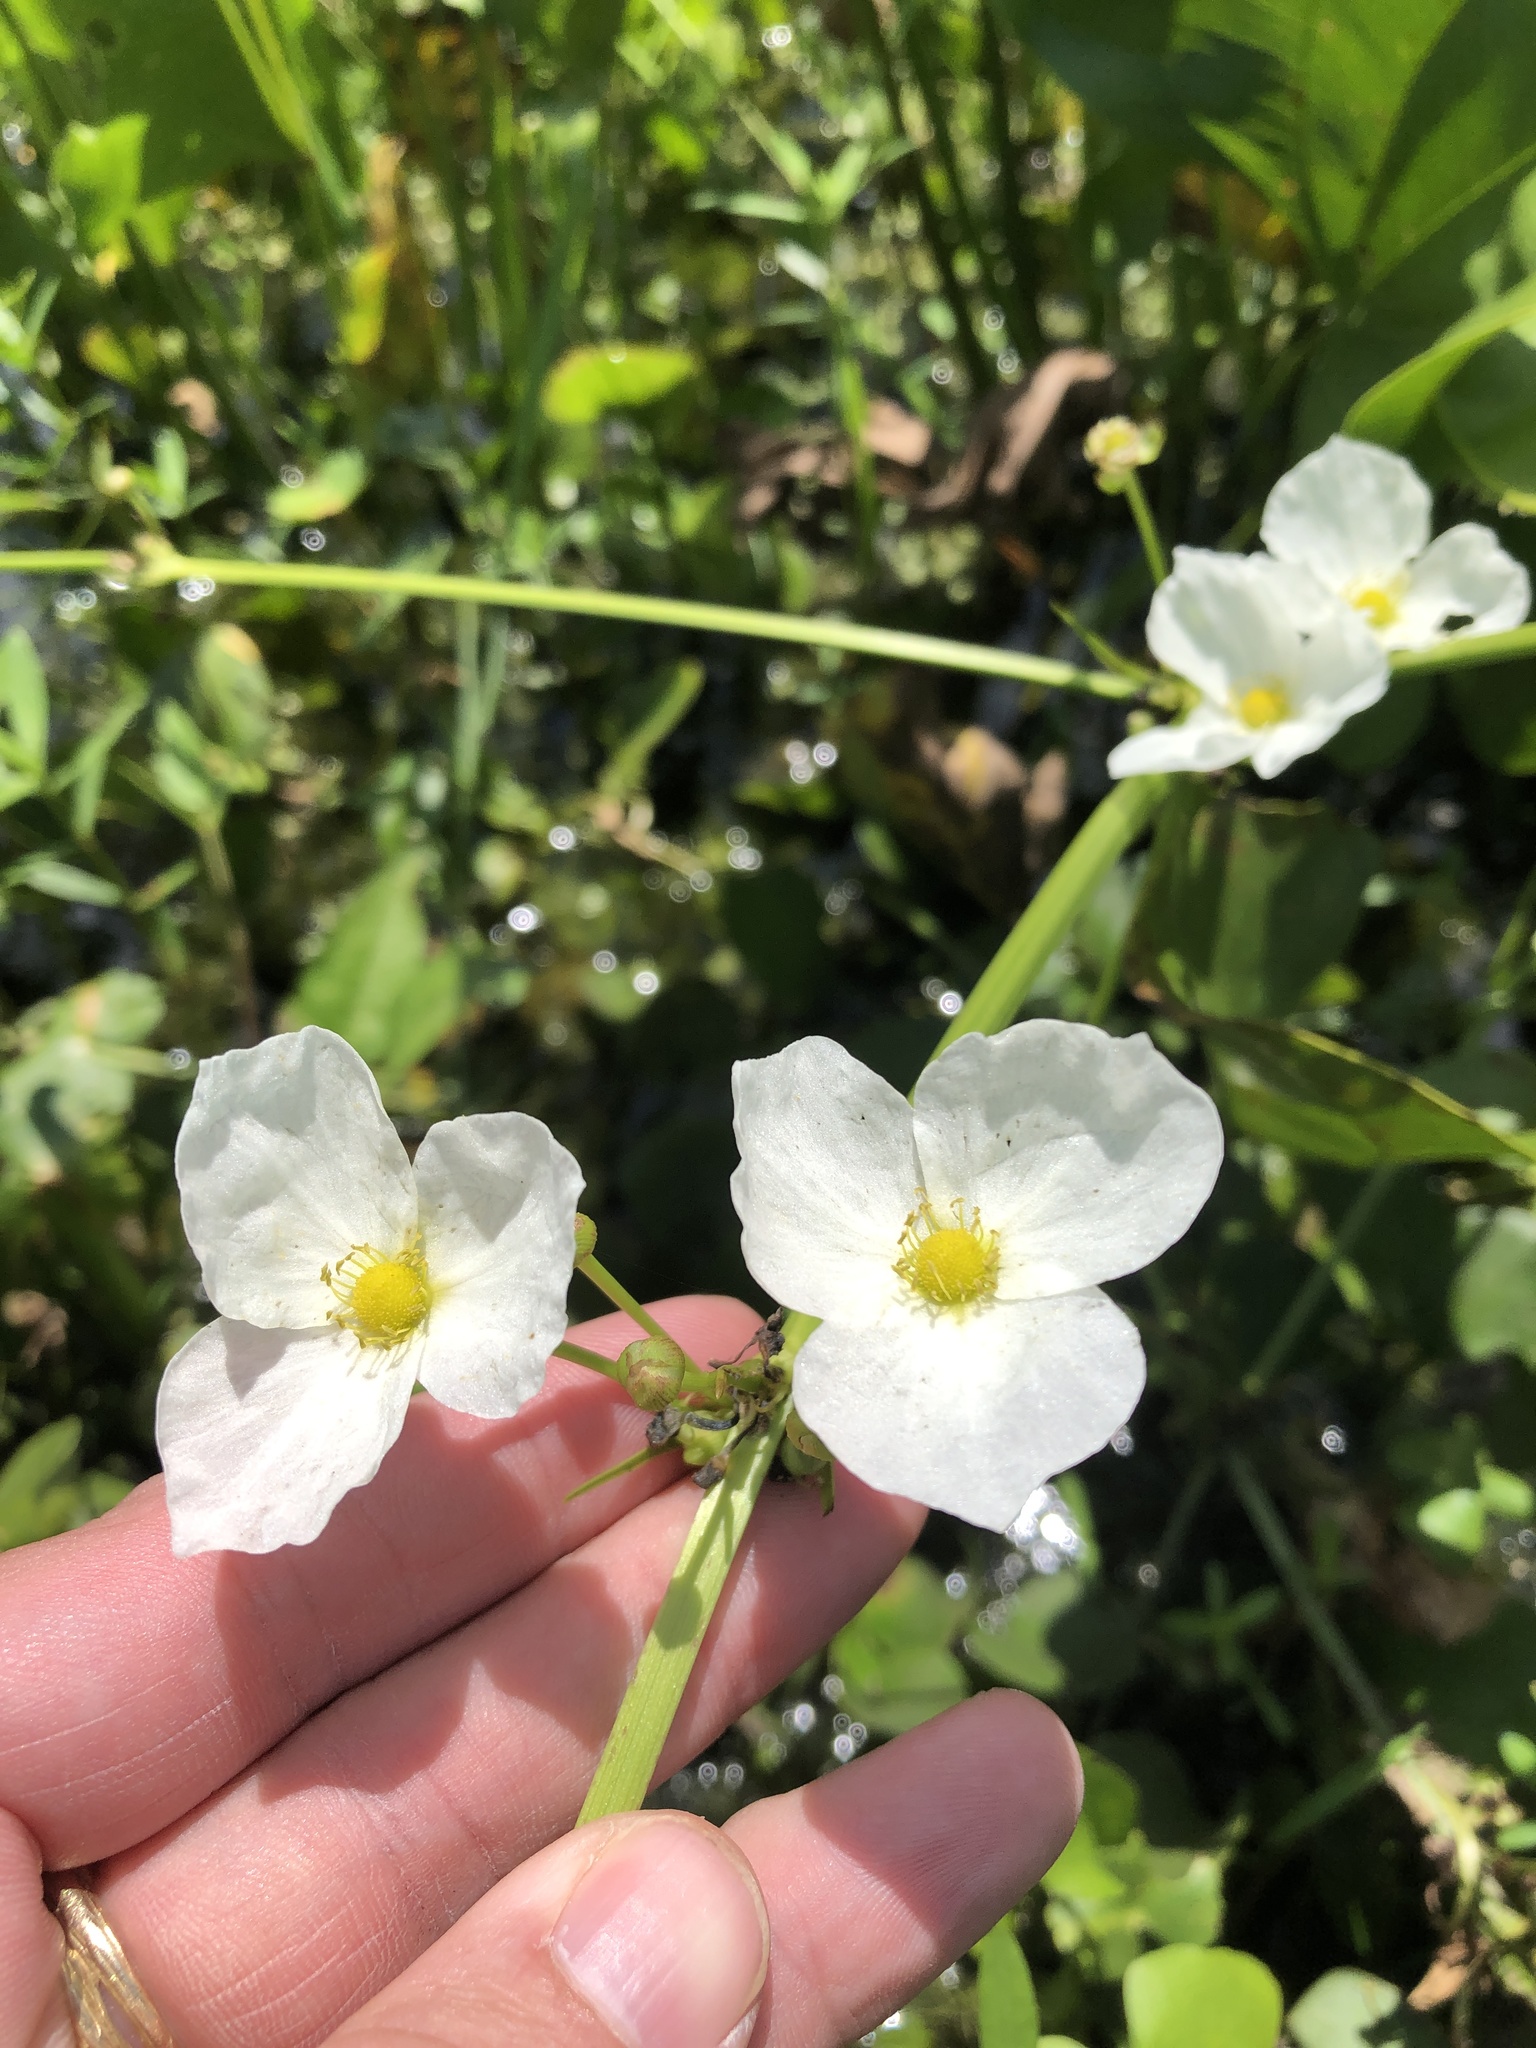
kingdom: Plantae
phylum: Tracheophyta
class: Liliopsida
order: Alismatales
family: Alismataceae
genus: Aquarius
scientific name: Aquarius cordifolius
